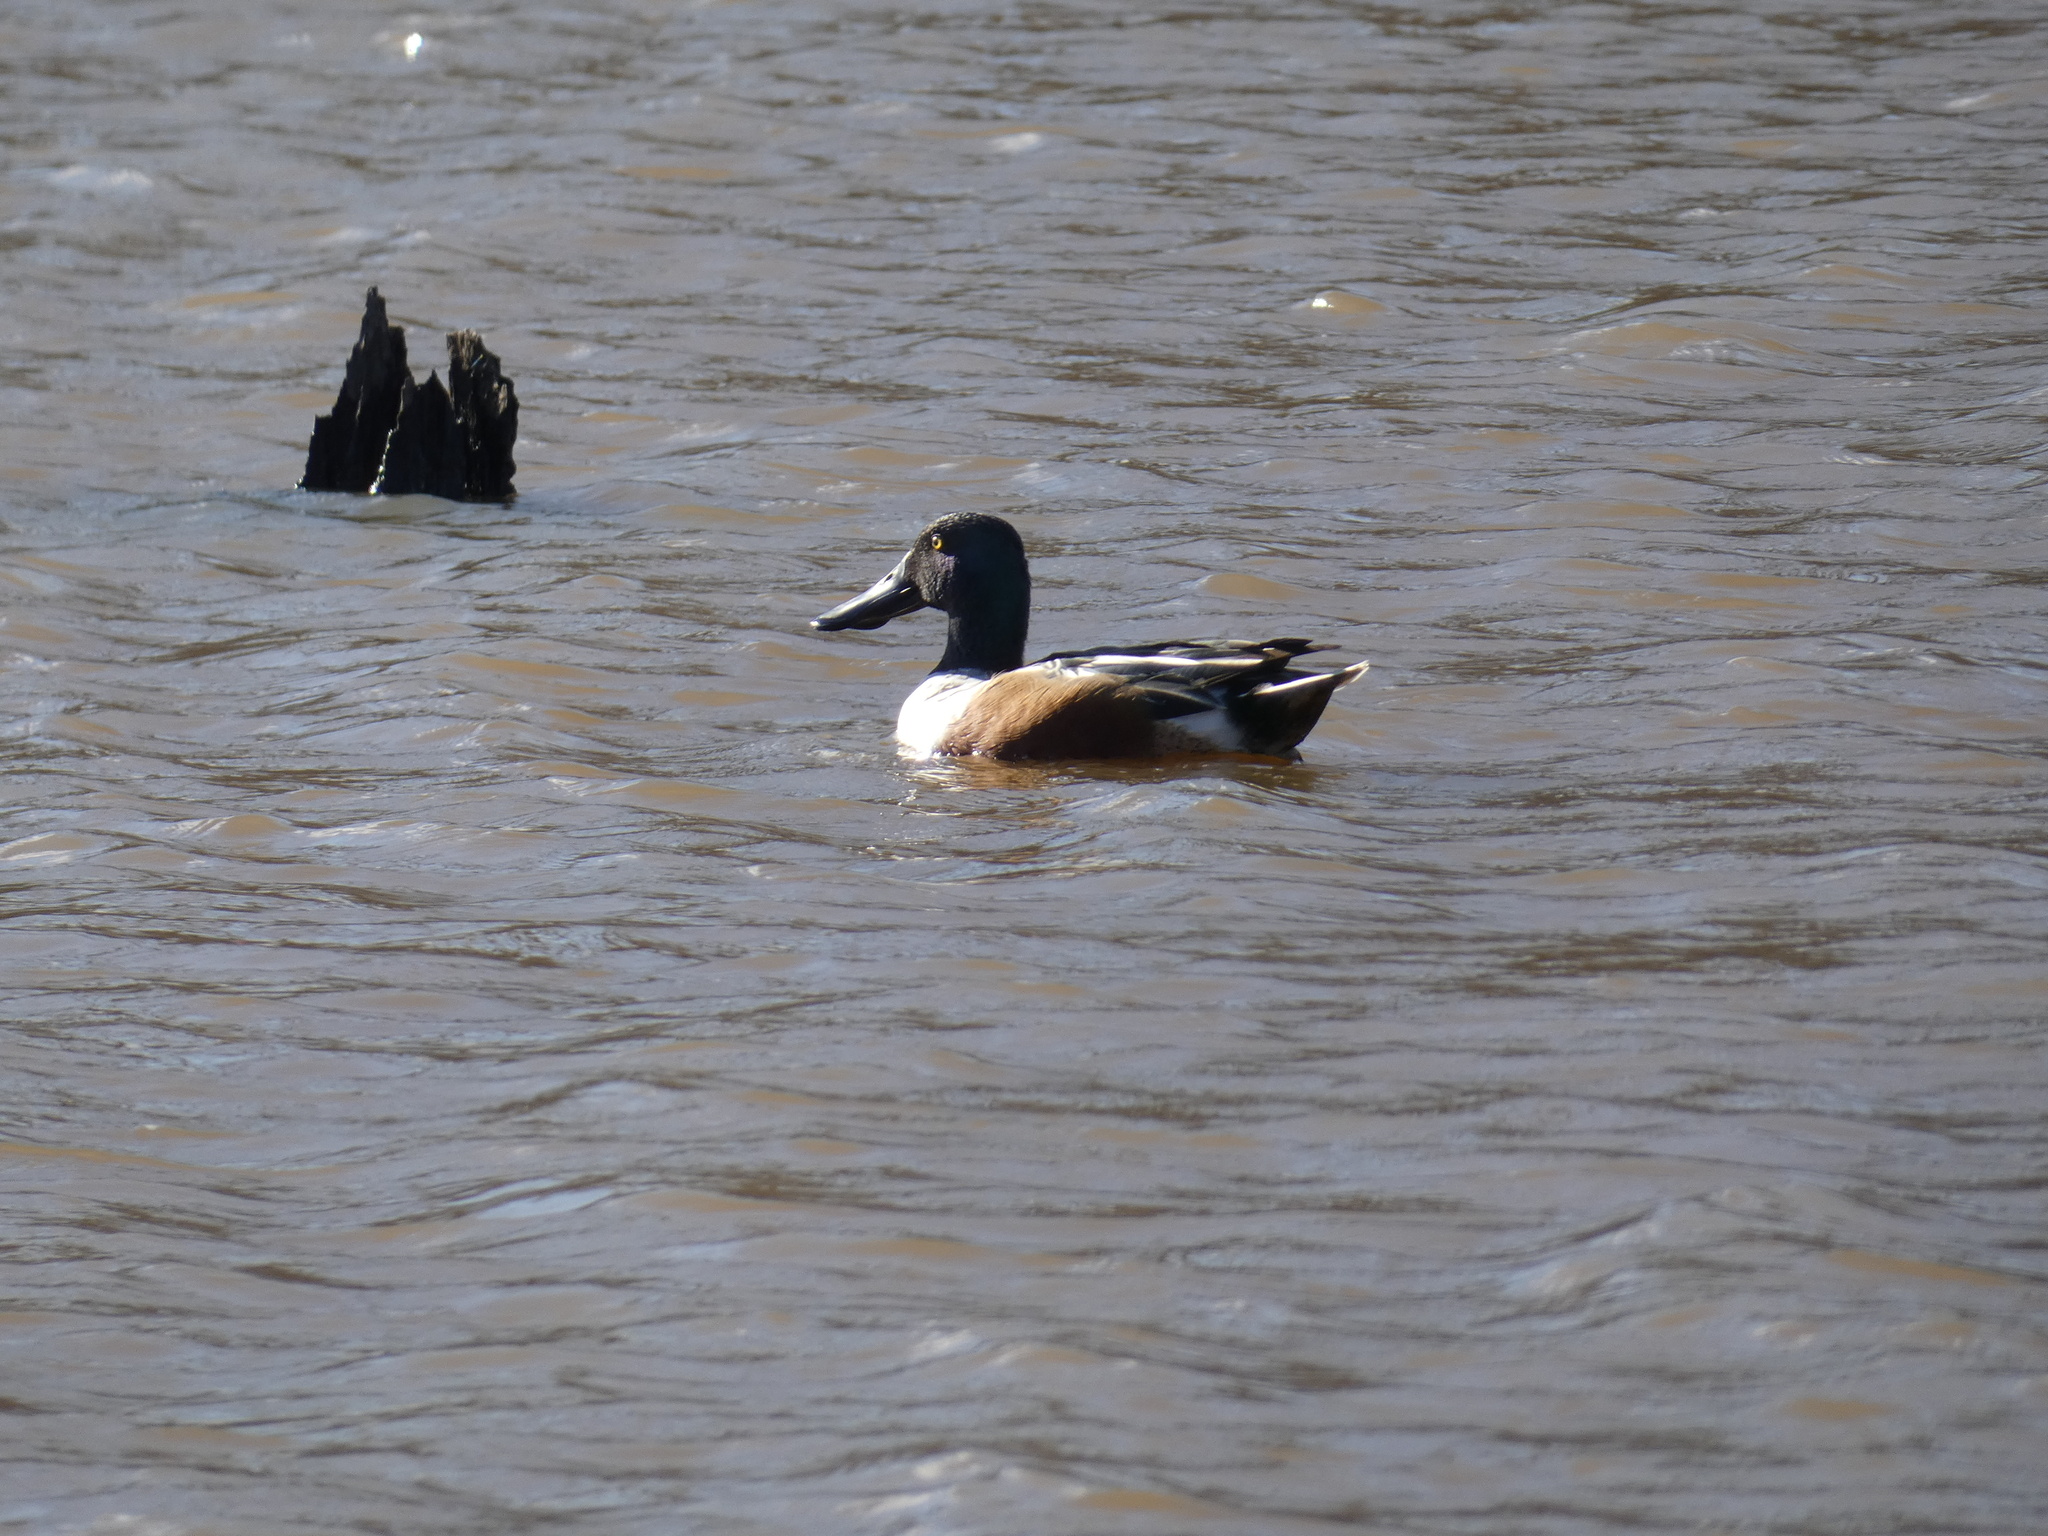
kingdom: Animalia
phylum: Chordata
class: Aves
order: Anseriformes
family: Anatidae
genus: Spatula
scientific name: Spatula clypeata
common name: Northern shoveler
